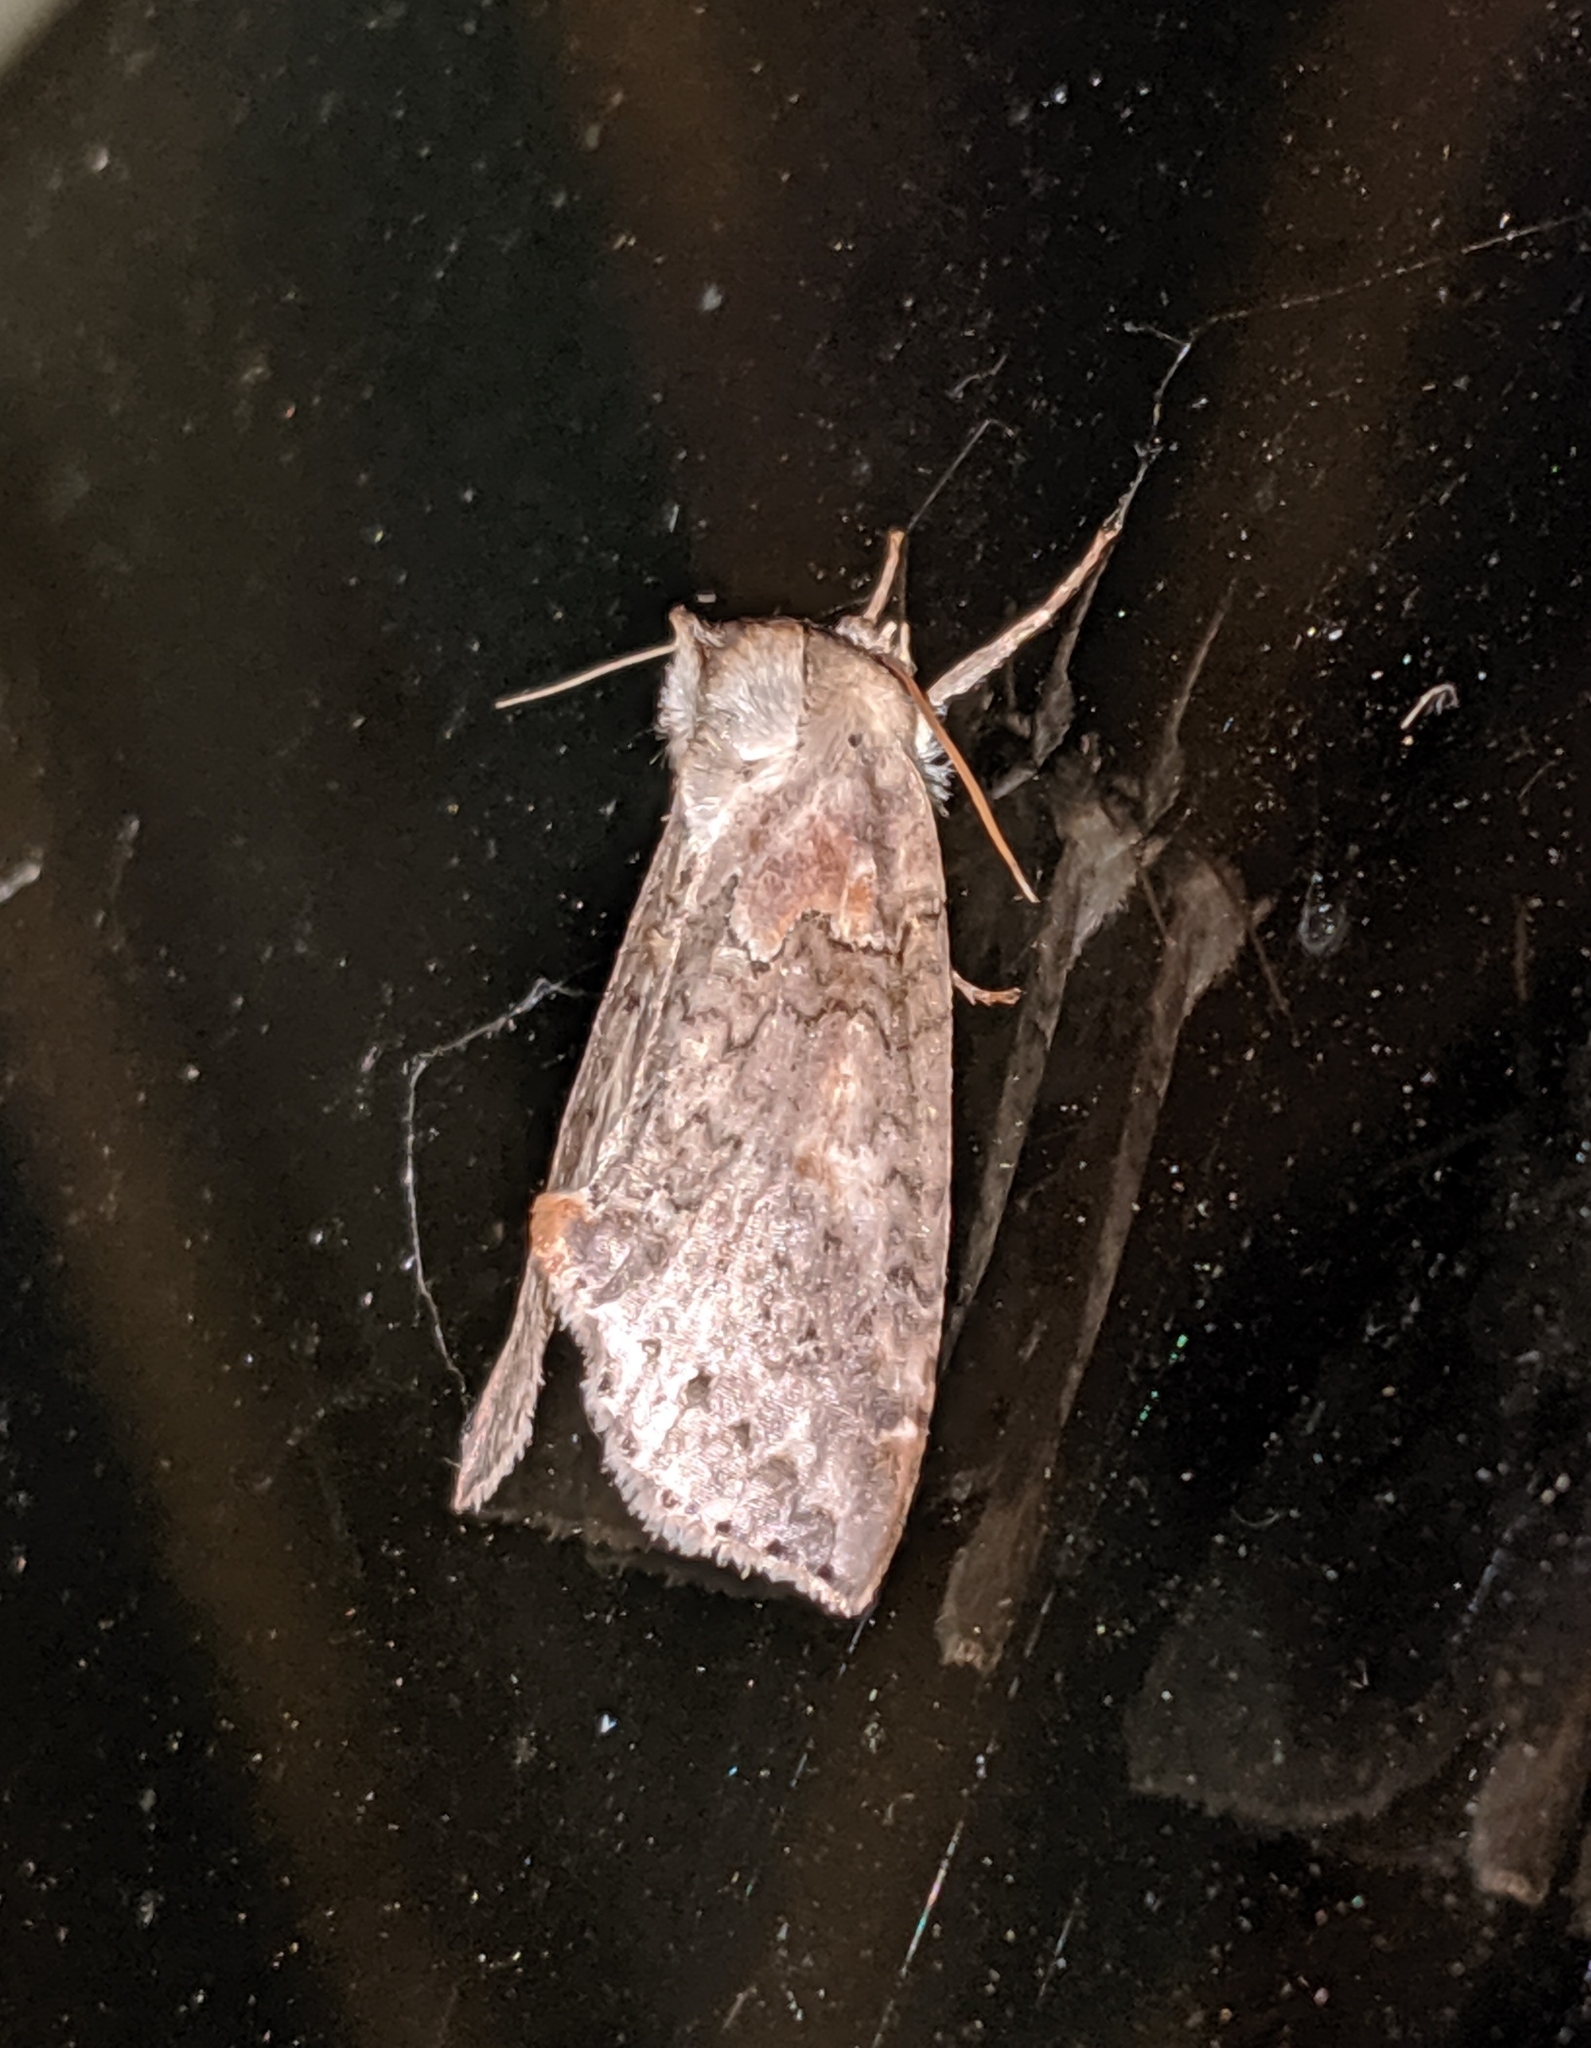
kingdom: Animalia
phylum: Arthropoda
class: Insecta
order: Lepidoptera
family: Drepanidae
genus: Pseudothyatira
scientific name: Pseudothyatira cymatophoroides
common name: Tufted thyatirid moth
